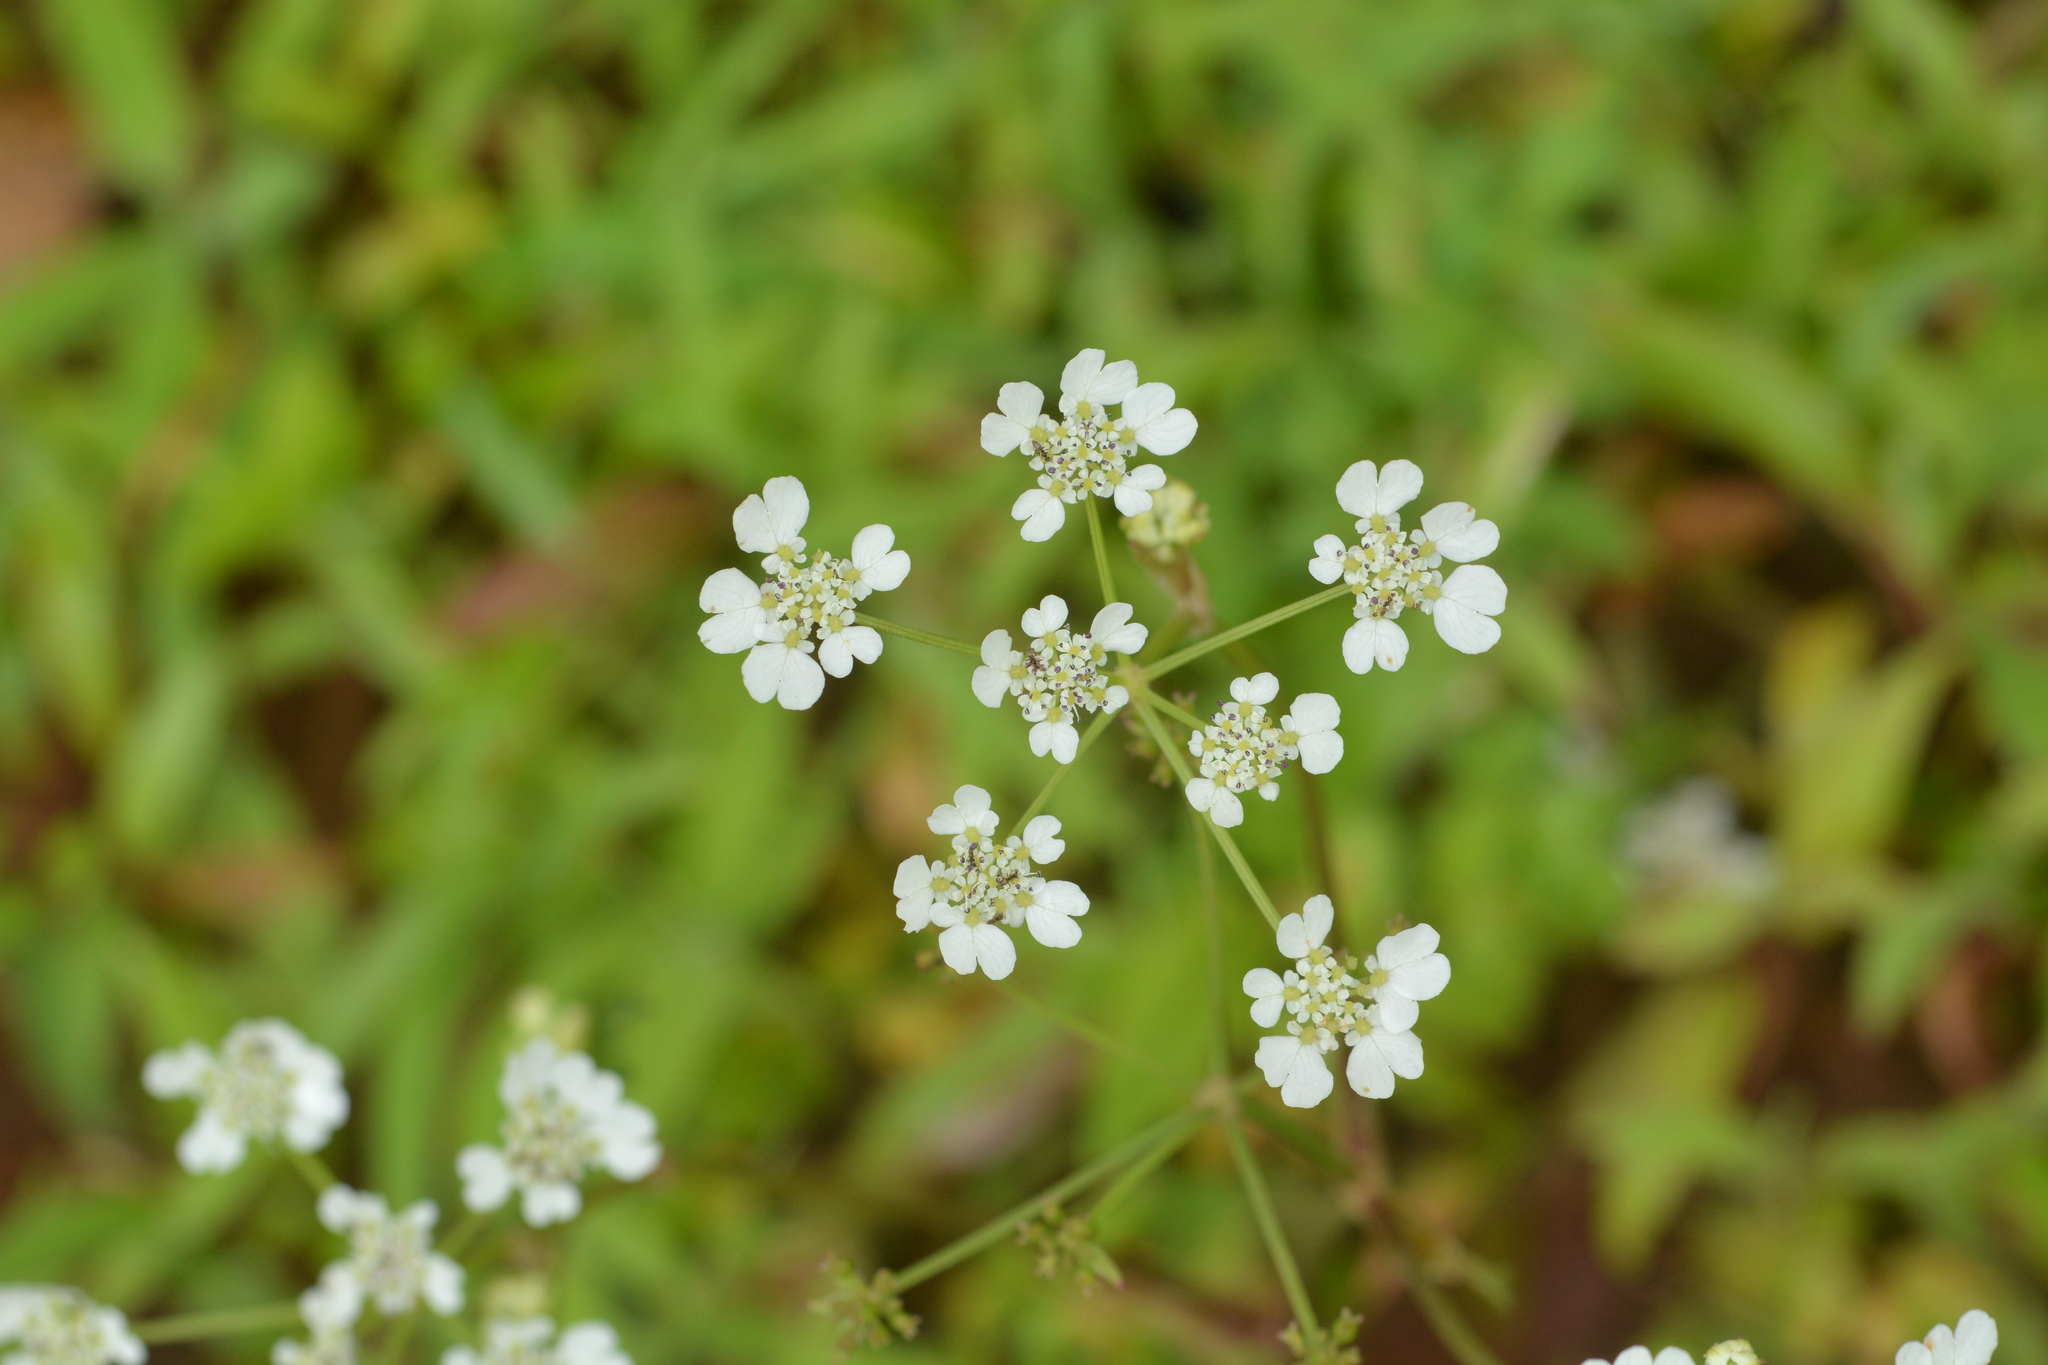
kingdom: Plantae
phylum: Tracheophyta
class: Magnoliopsida
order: Apiales
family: Apiaceae
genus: Pinda
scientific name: Pinda concanensis
